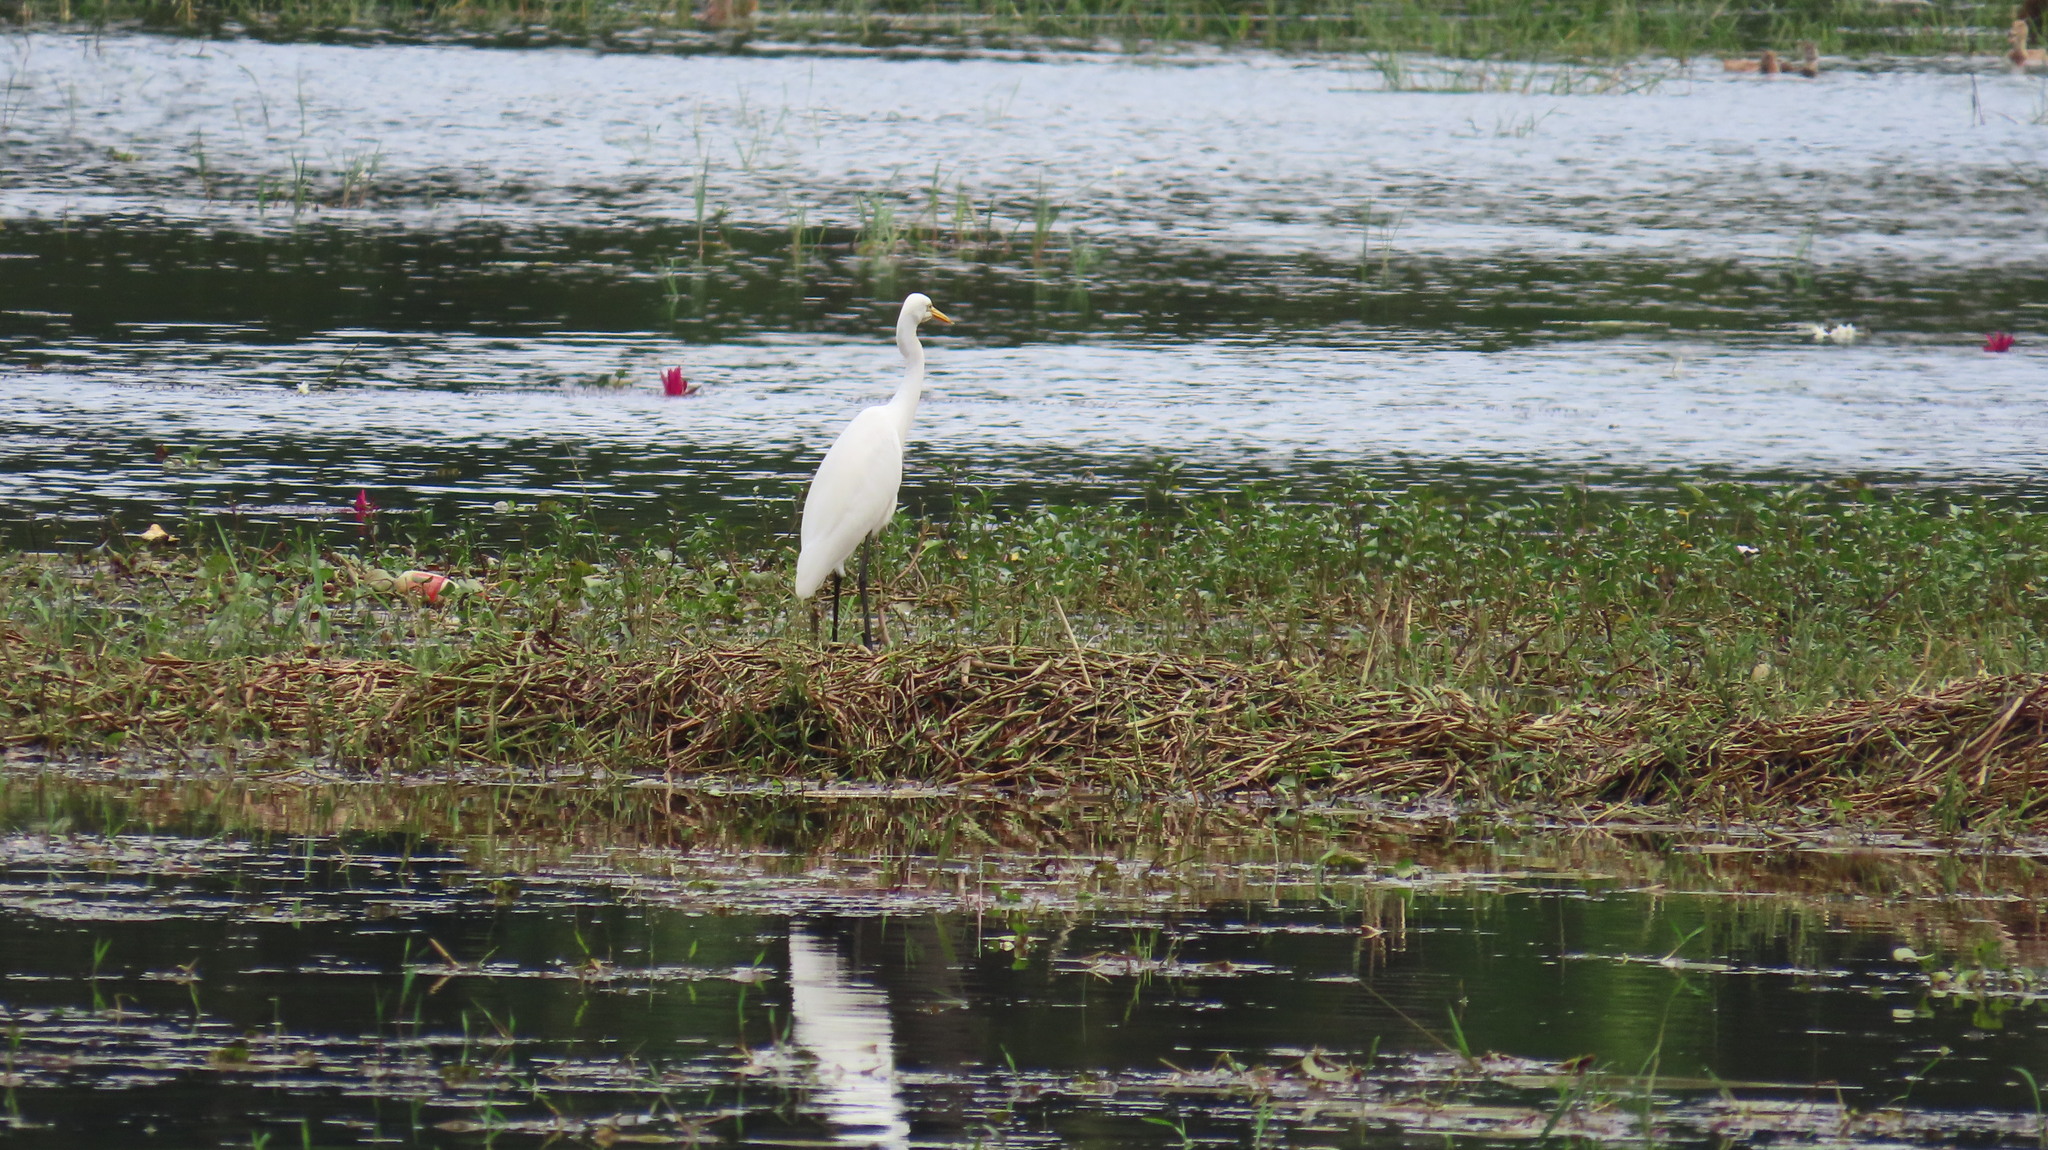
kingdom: Animalia
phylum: Chordata
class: Aves
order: Pelecaniformes
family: Ardeidae
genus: Egretta
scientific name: Egretta intermedia
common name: Intermediate egret
